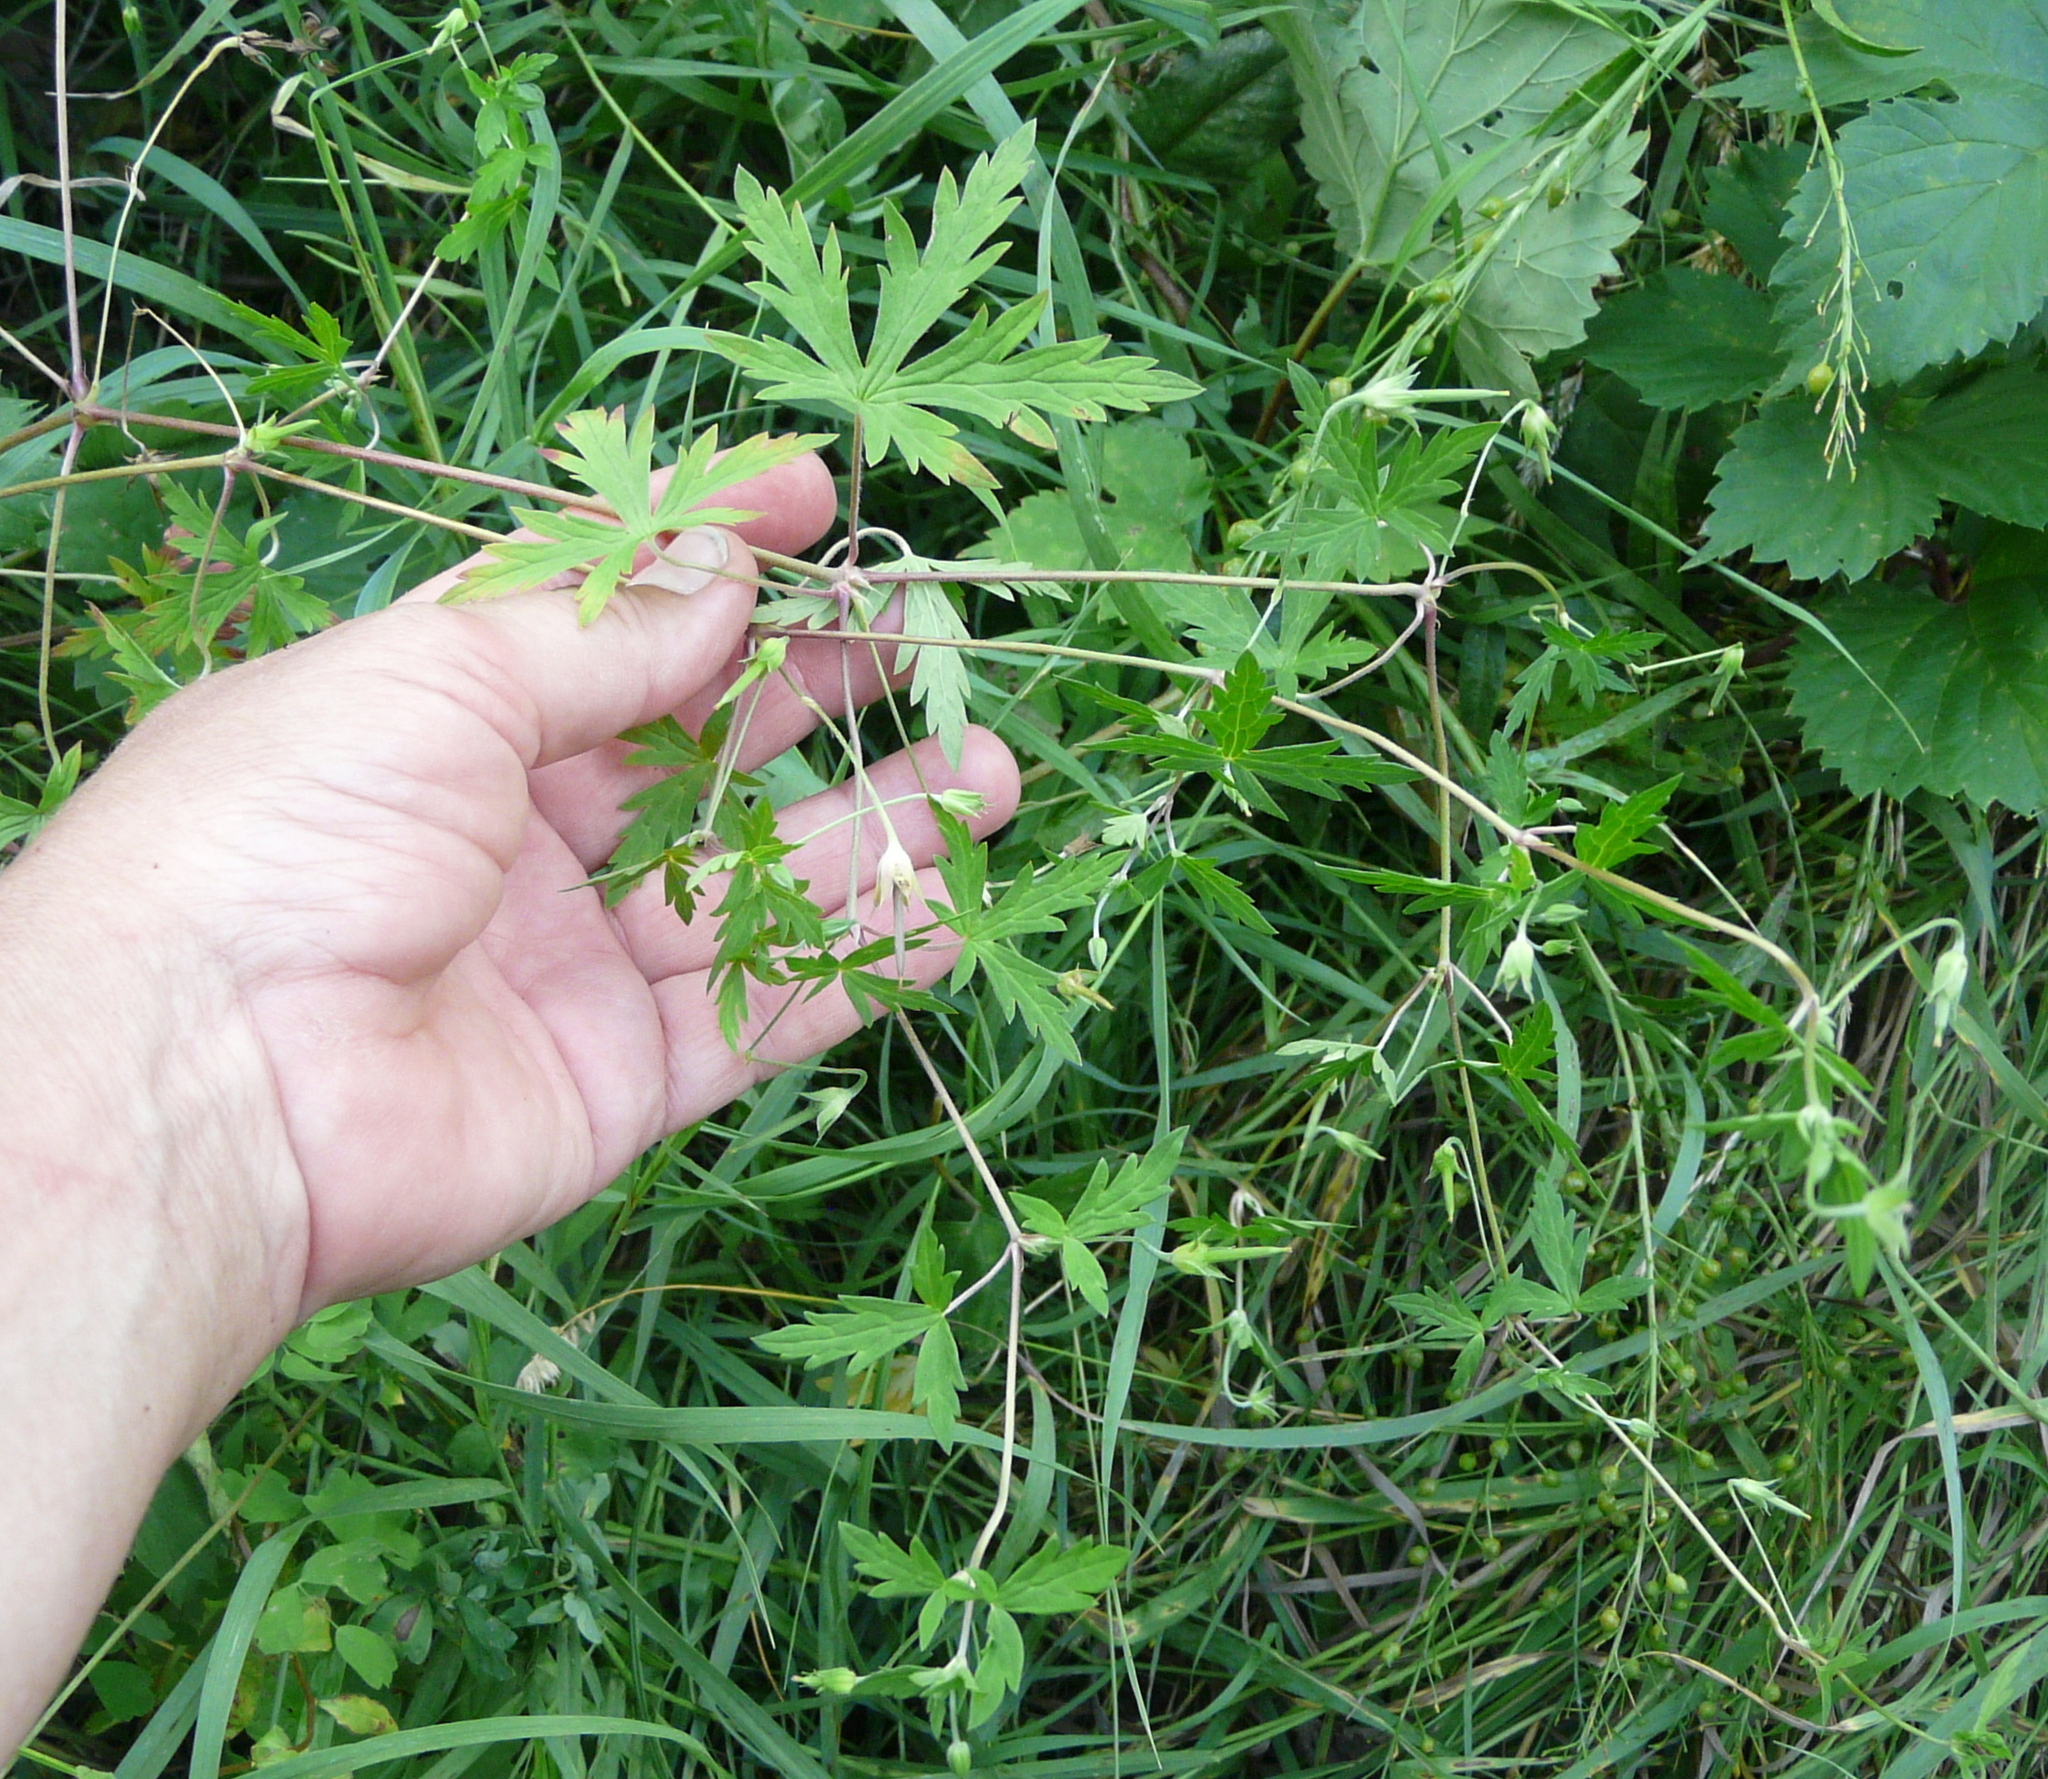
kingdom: Plantae
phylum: Tracheophyta
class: Magnoliopsida
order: Geraniales
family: Geraniaceae
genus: Geranium
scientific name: Geranium sibiricum
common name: Siberian crane's-bill
